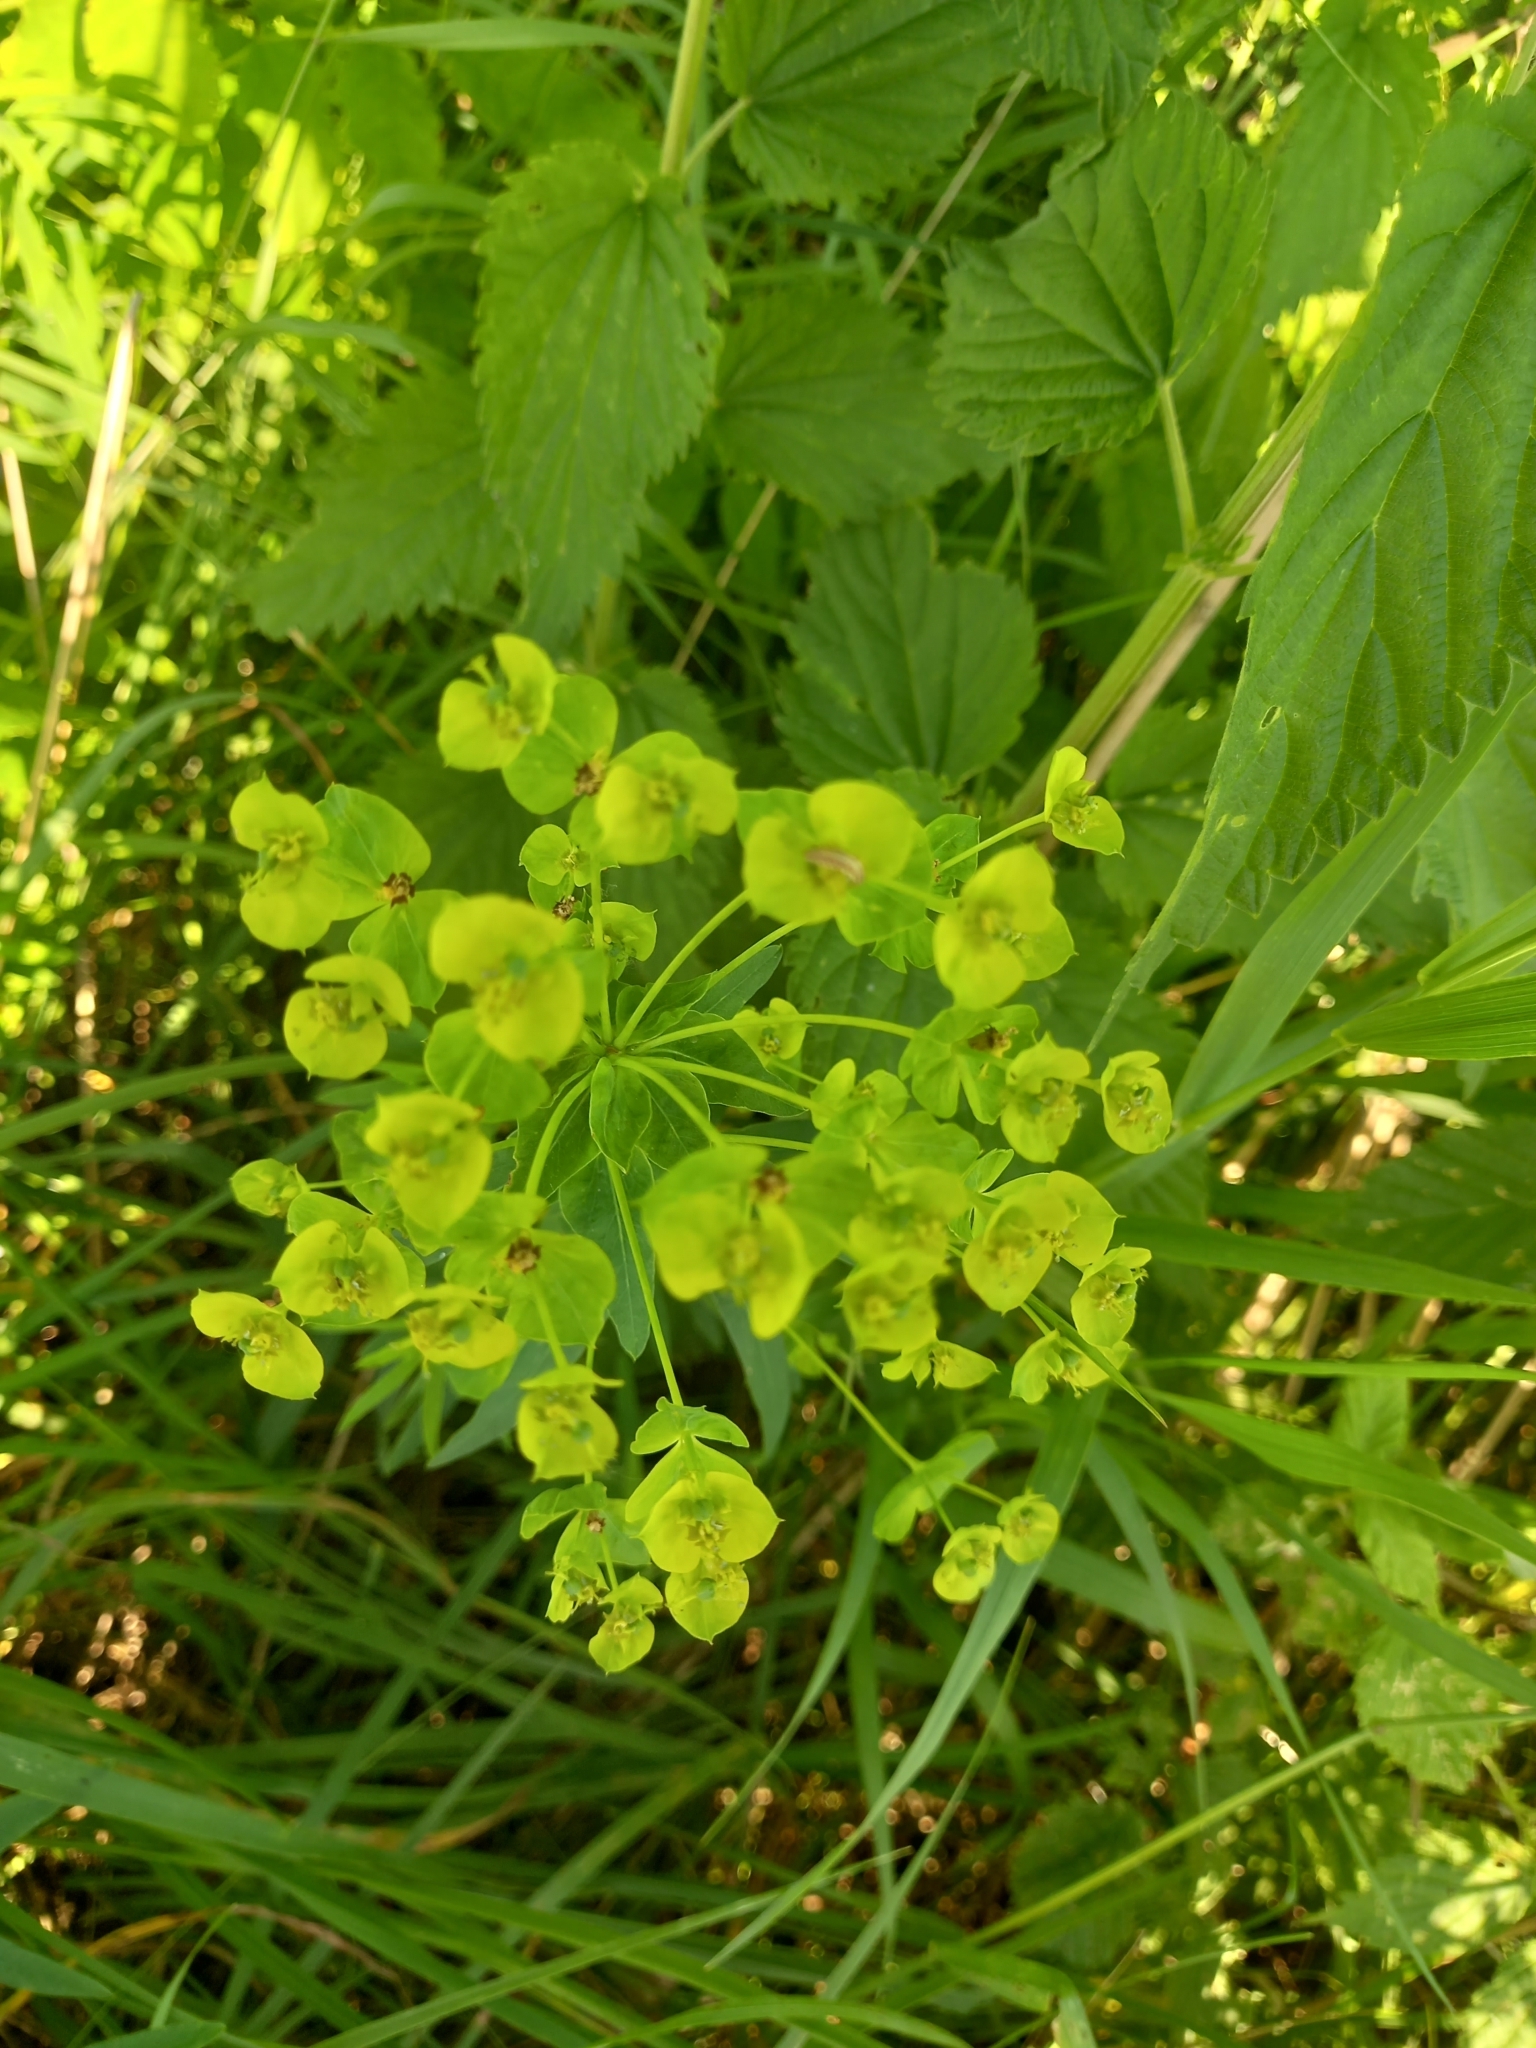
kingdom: Plantae
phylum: Tracheophyta
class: Magnoliopsida
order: Malpighiales
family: Euphorbiaceae
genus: Euphorbia
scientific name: Euphorbia virgata
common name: Leafy spurge
